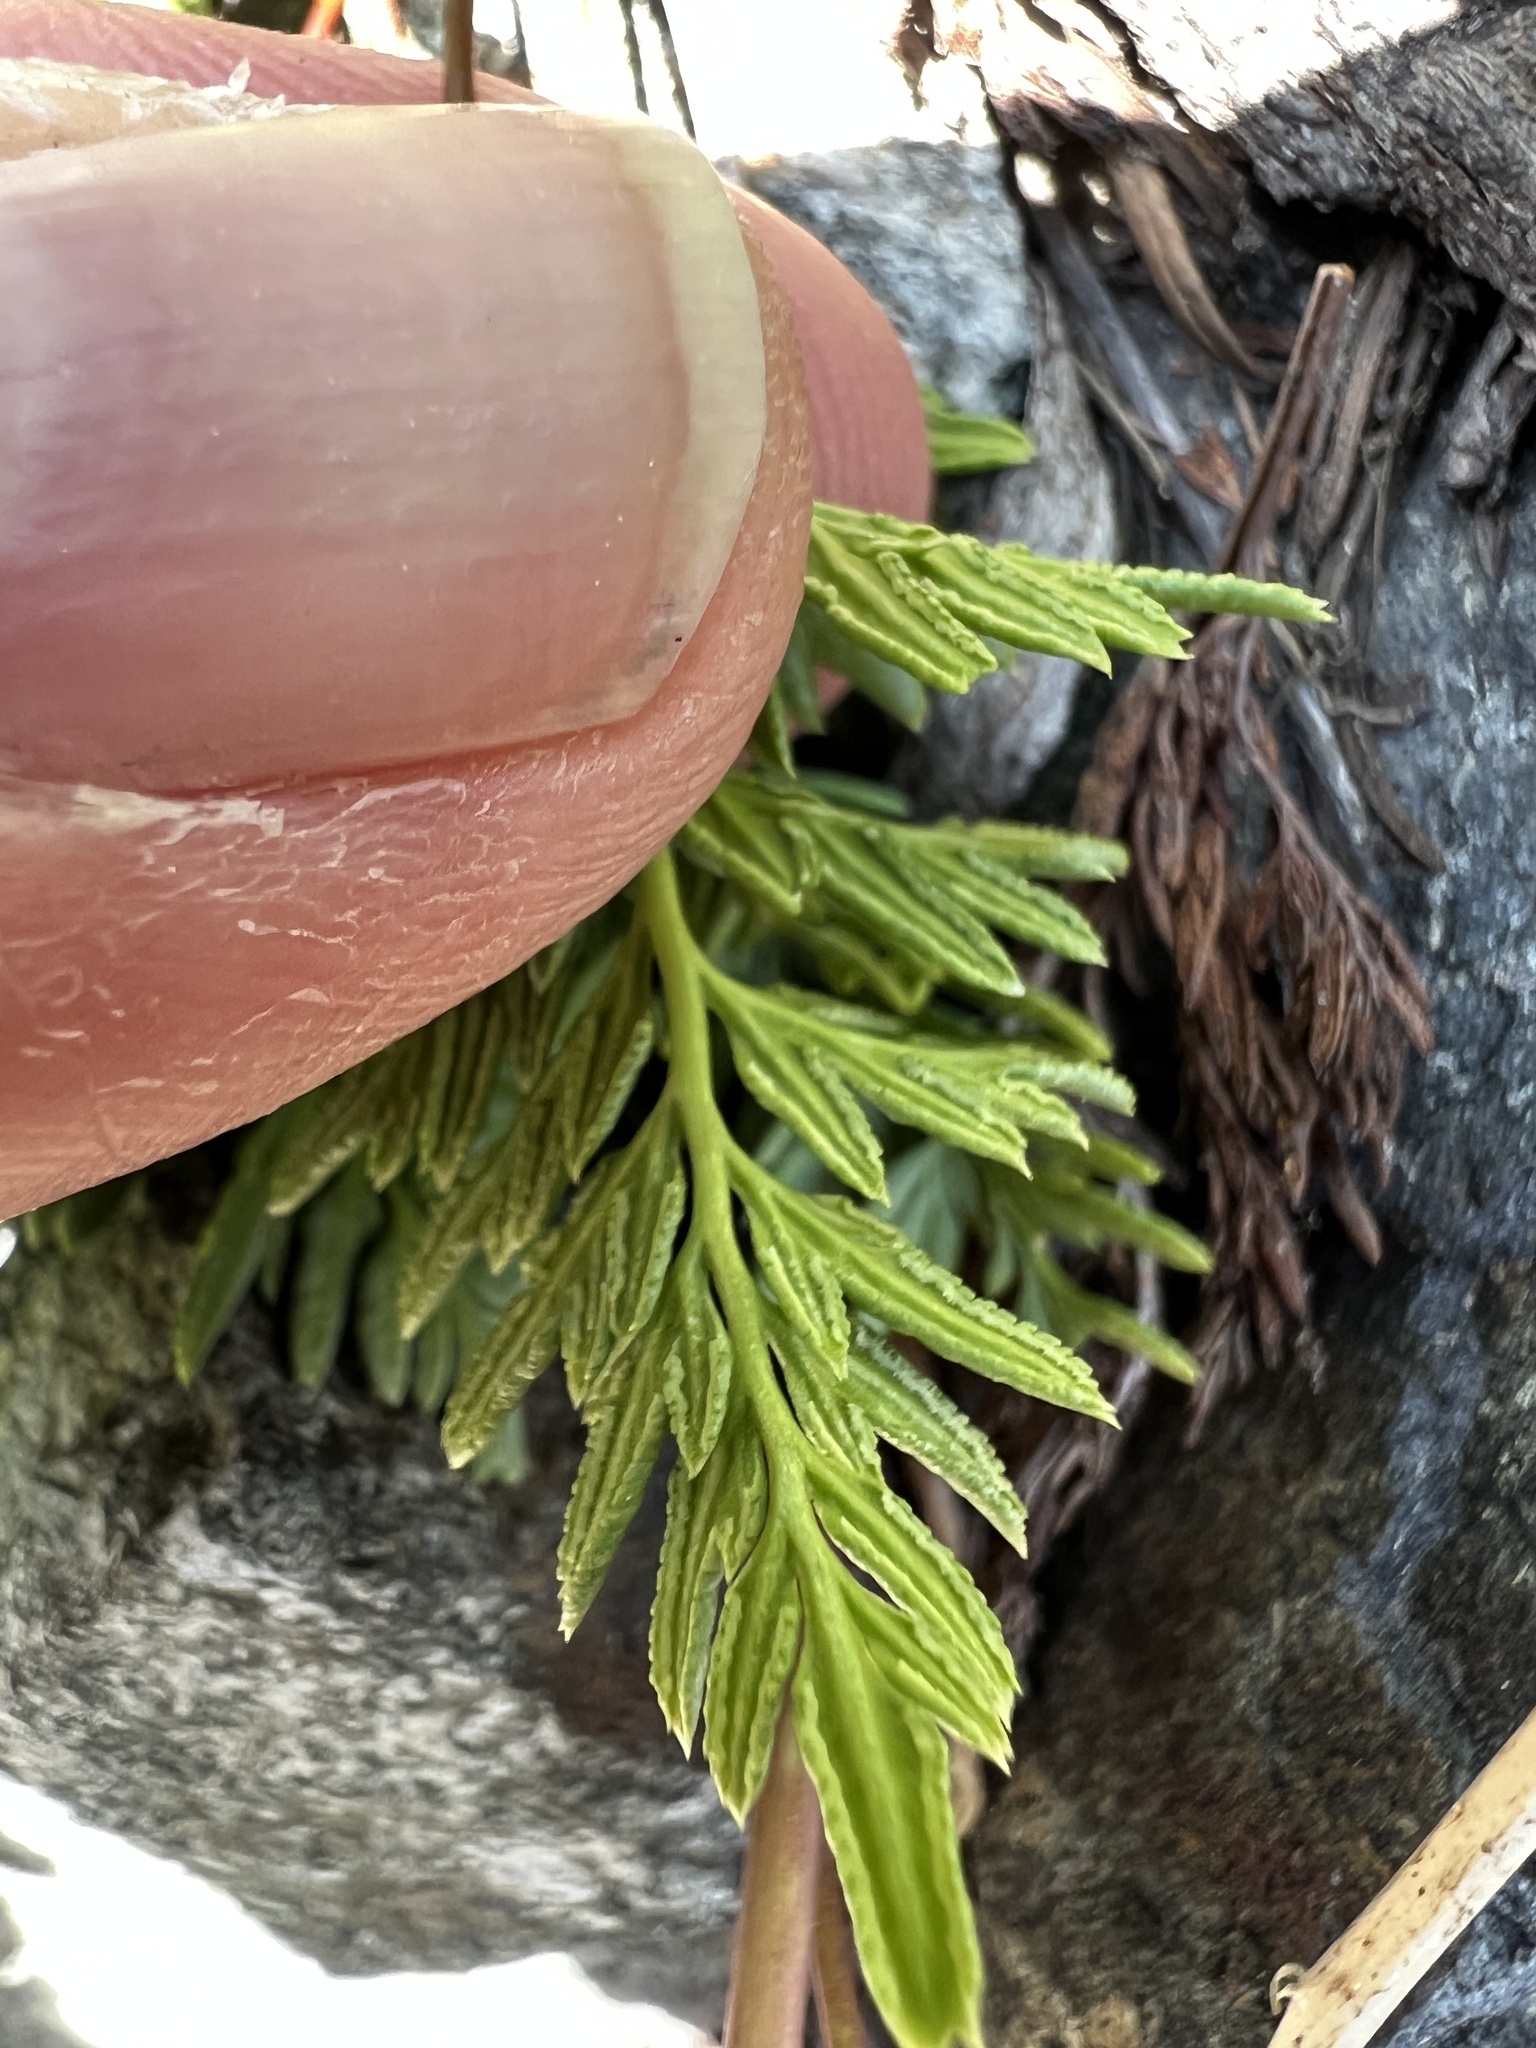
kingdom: Plantae
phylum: Tracheophyta
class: Polypodiopsida
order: Polypodiales
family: Pteridaceae
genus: Aspidotis
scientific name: Aspidotis densa
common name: Indian's dream
